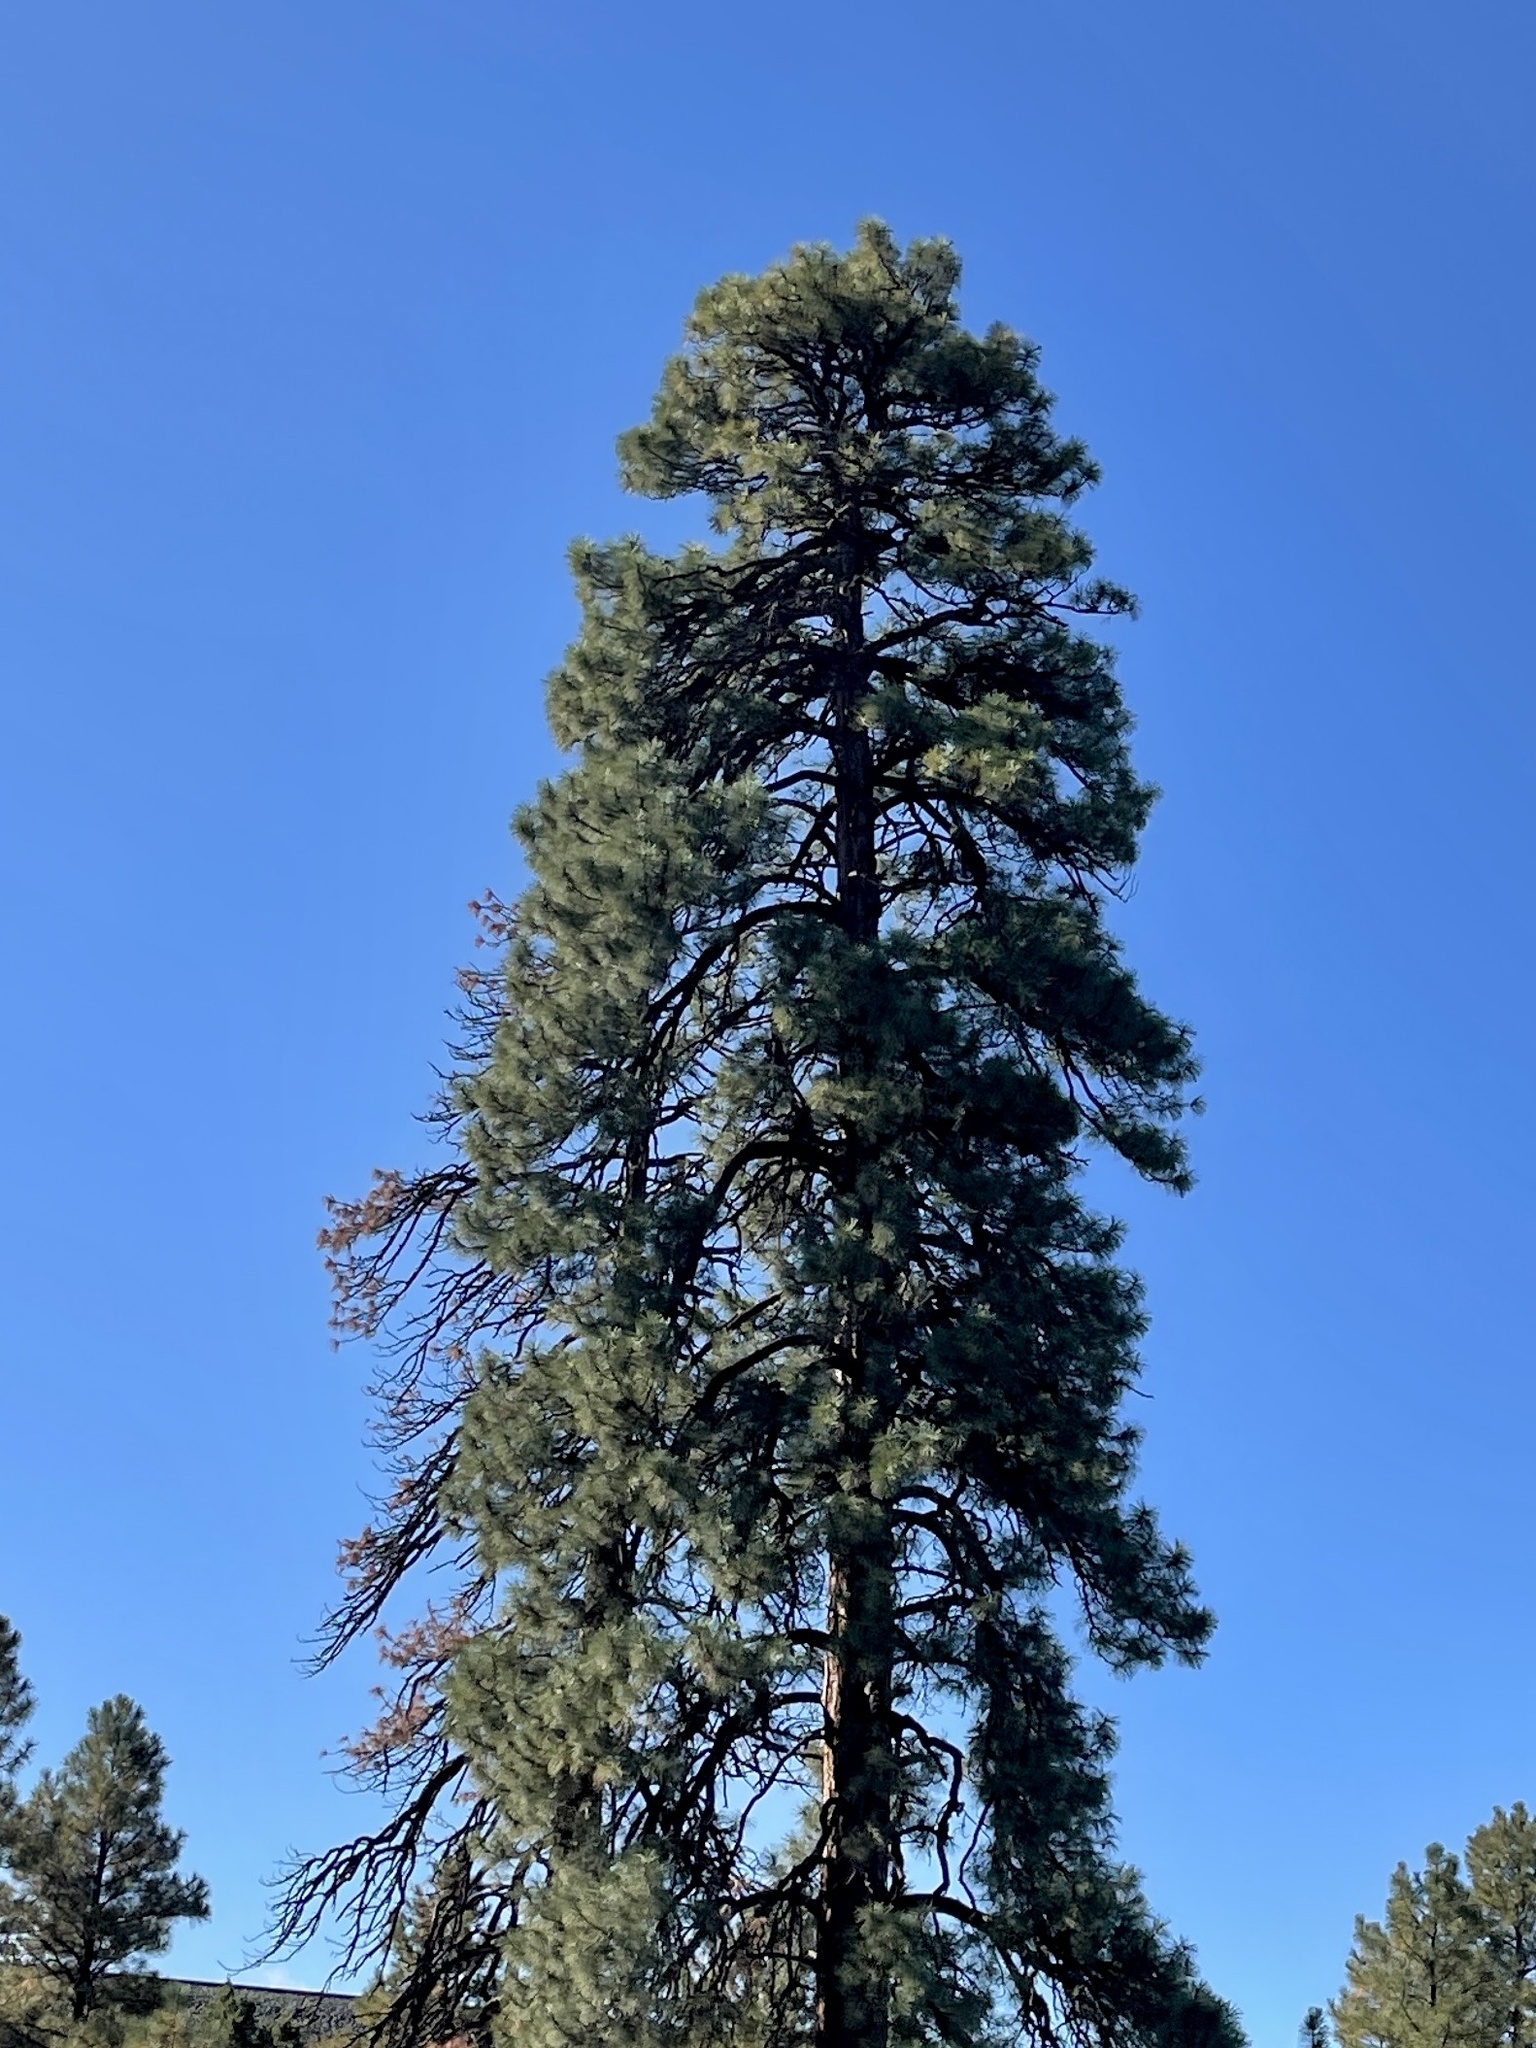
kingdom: Plantae
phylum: Tracheophyta
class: Pinopsida
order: Pinales
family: Pinaceae
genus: Pinus
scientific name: Pinus ponderosa
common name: Western yellow-pine
